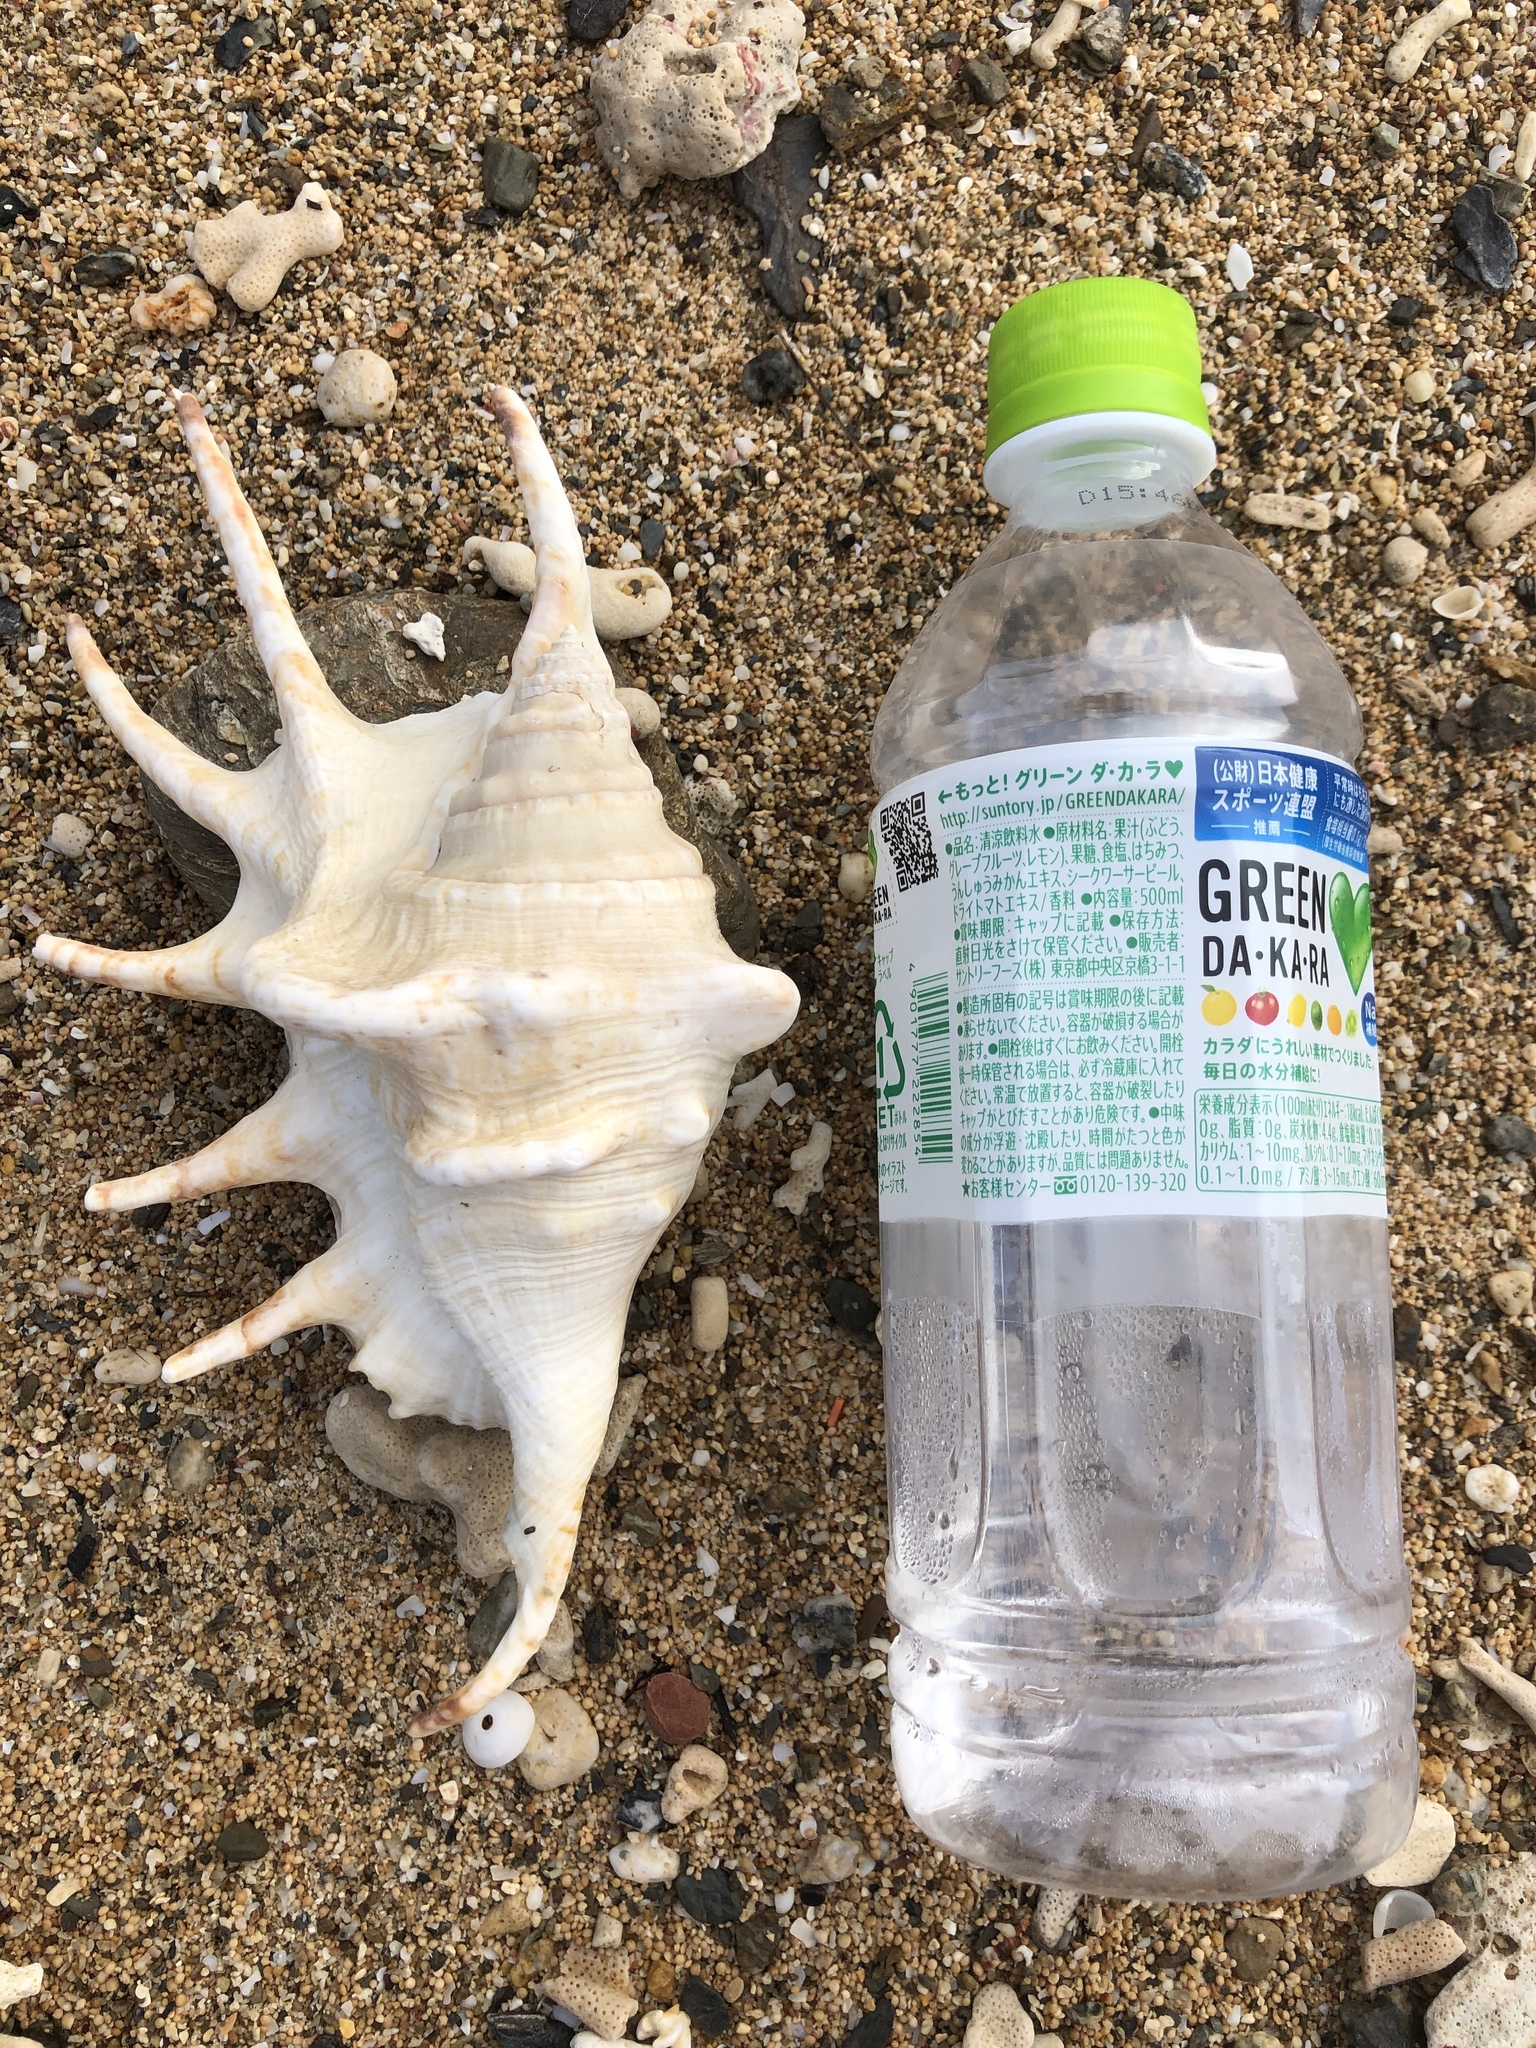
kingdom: Animalia
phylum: Mollusca
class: Gastropoda
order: Littorinimorpha
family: Strombidae
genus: Lambis
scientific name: Lambis lambis
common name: Common spider conch
